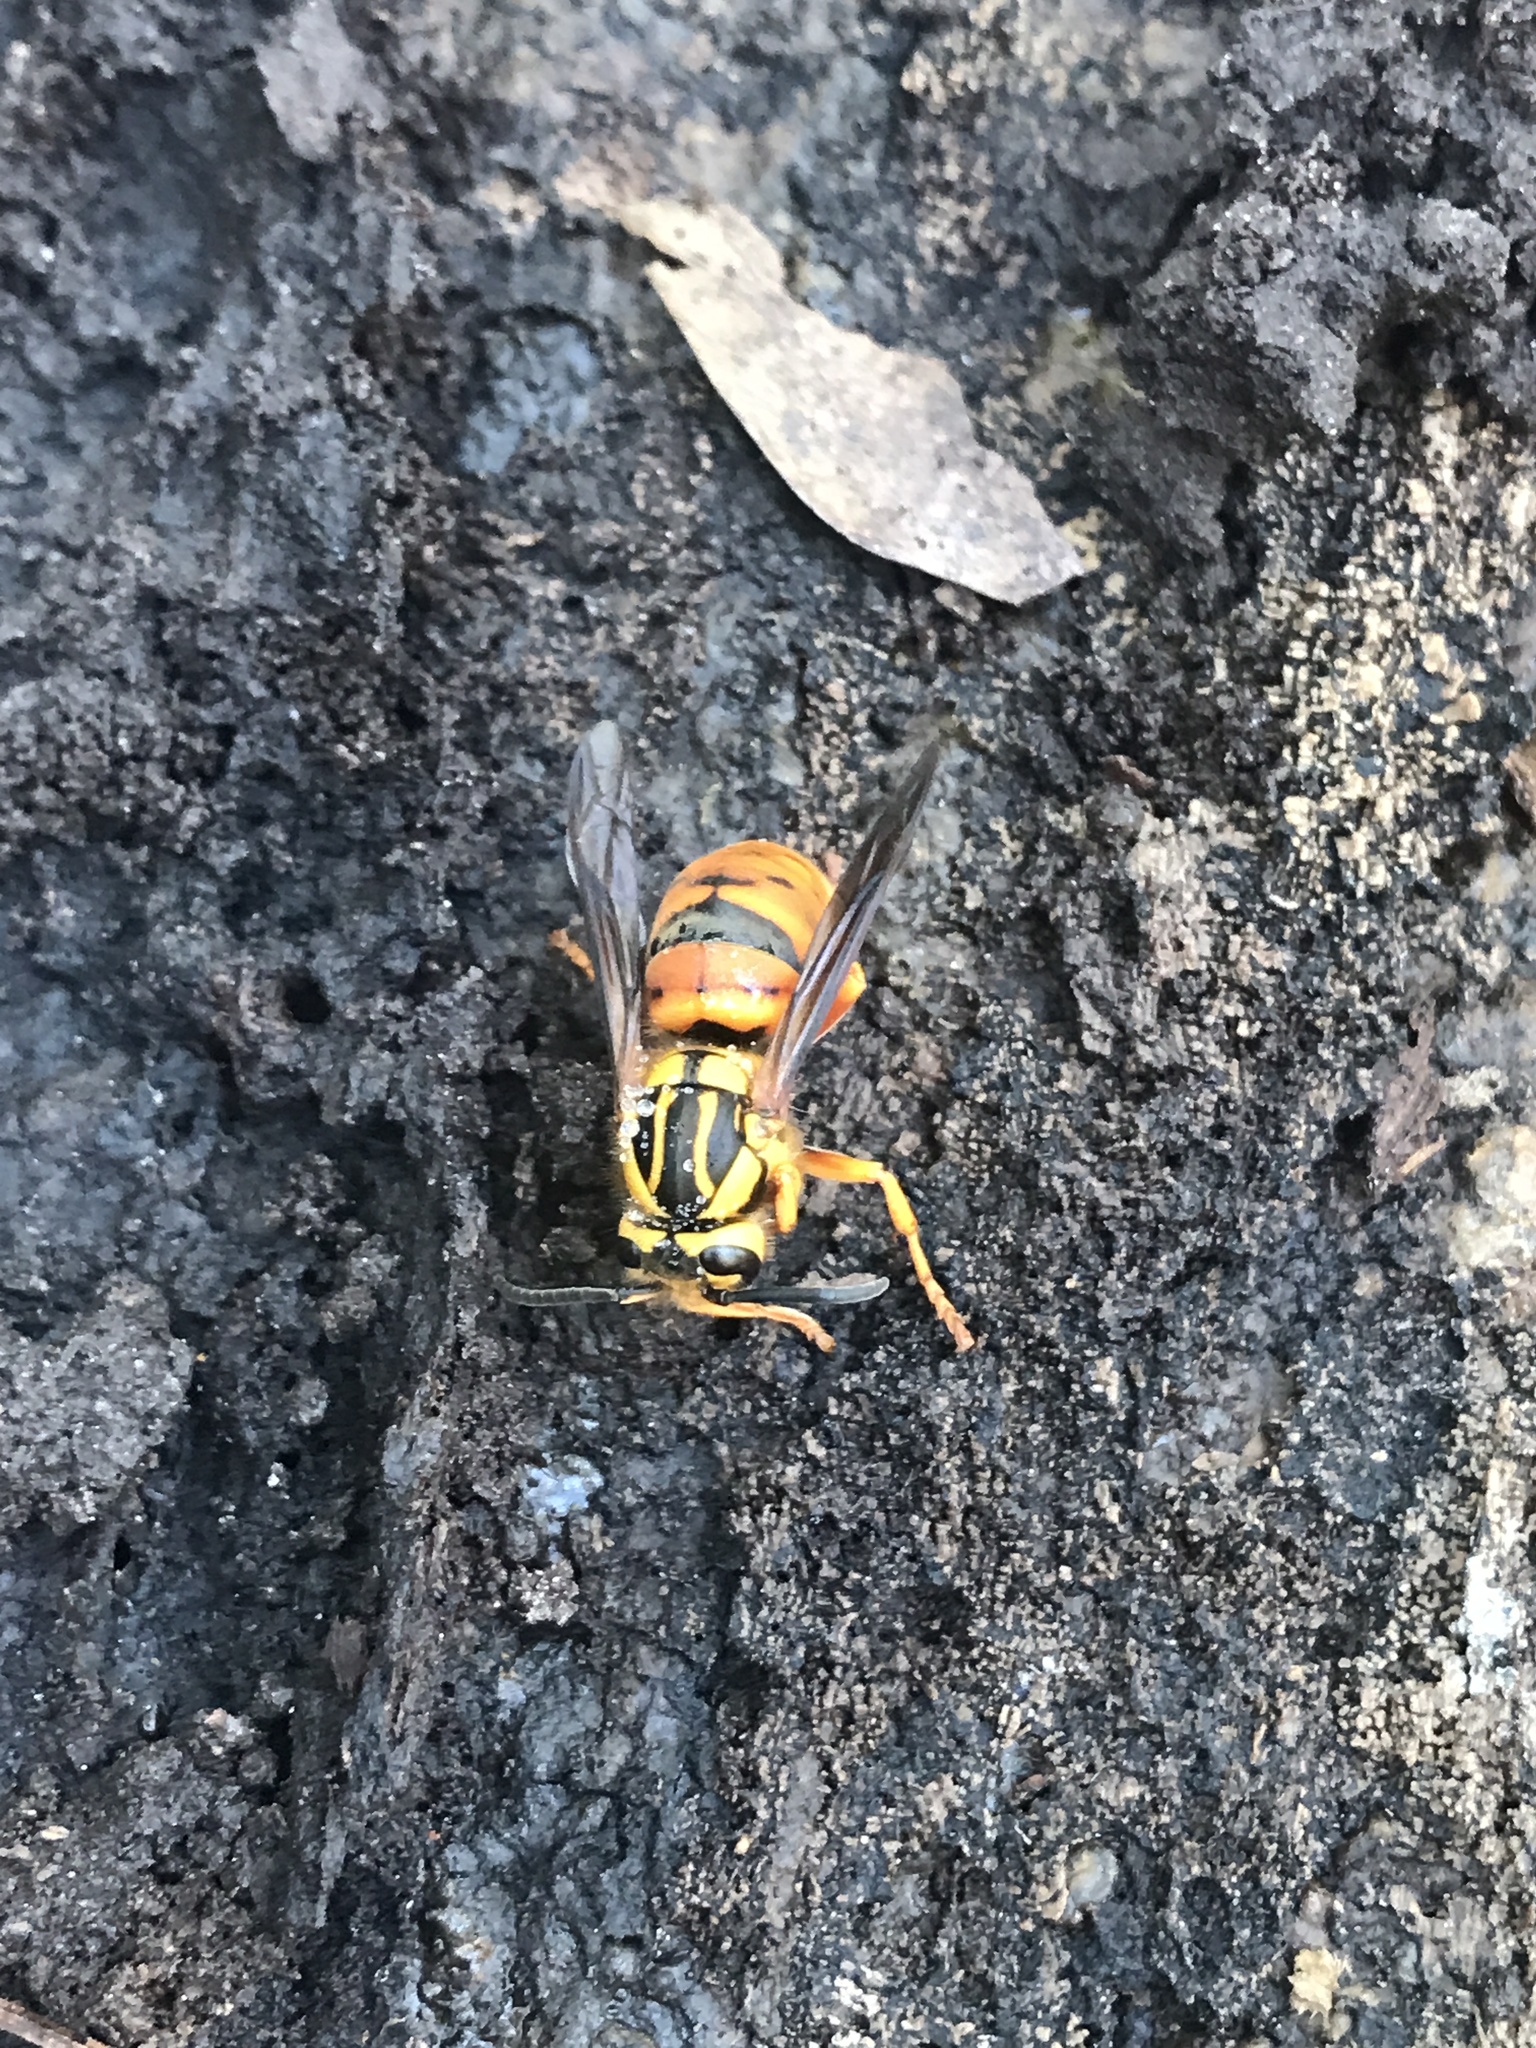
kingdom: Animalia
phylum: Arthropoda
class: Insecta
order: Hymenoptera
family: Vespidae
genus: Vespula
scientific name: Vespula squamosa
